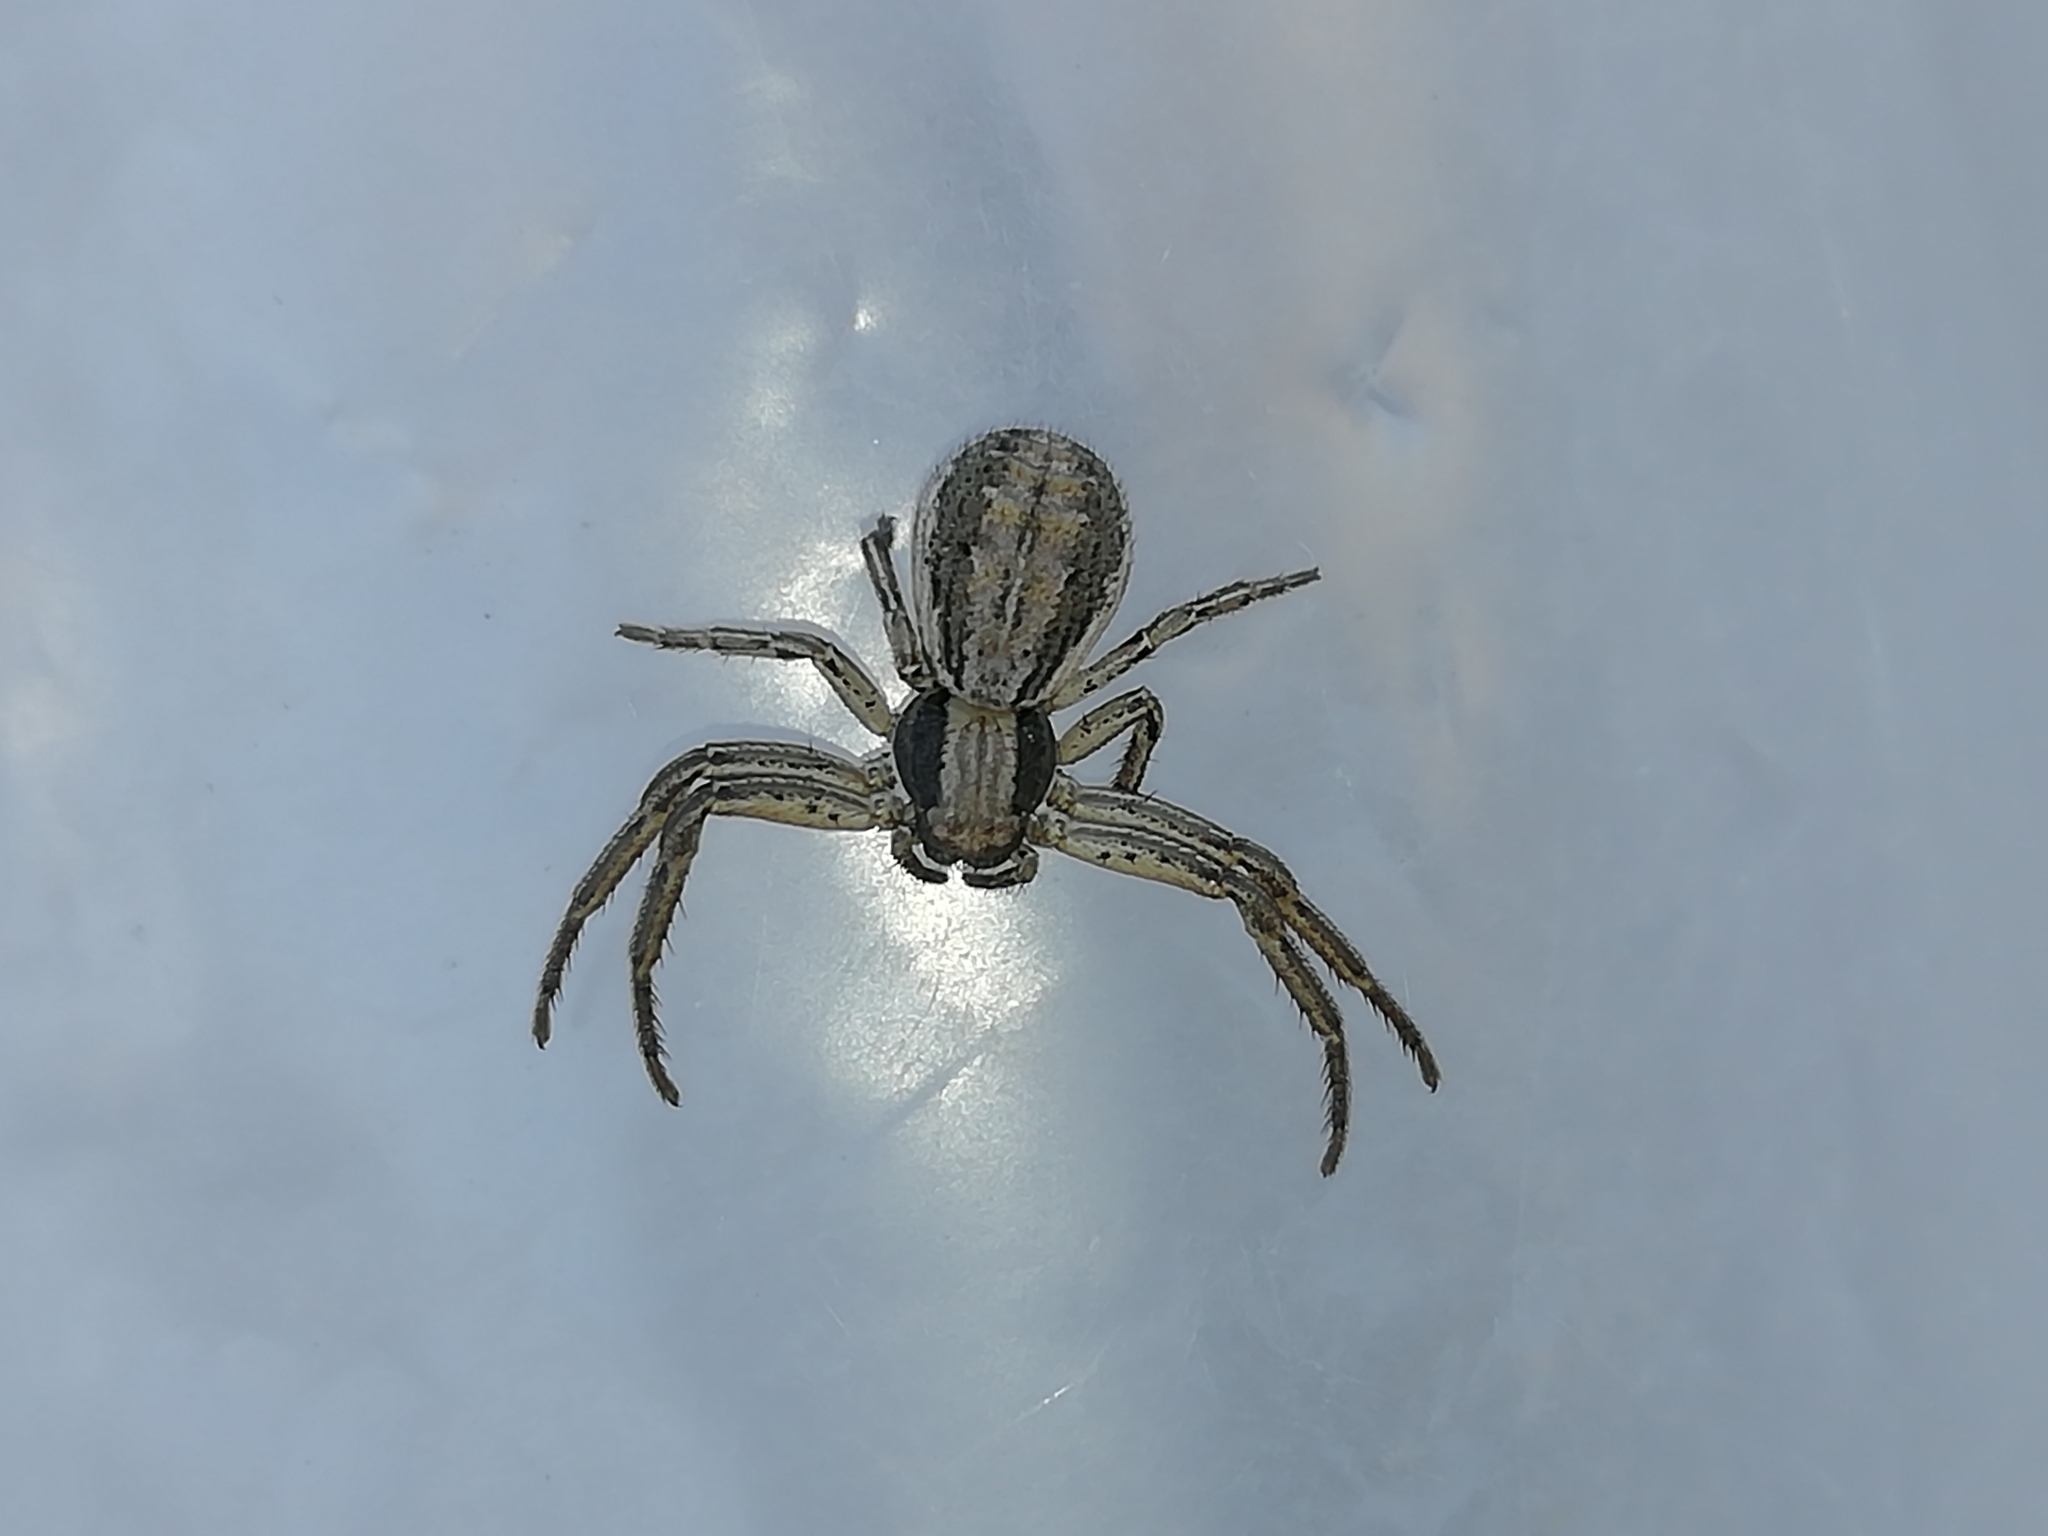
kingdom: Animalia
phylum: Arthropoda
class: Arachnida
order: Araneae
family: Thomisidae
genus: Spiracme
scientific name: Spiracme striatipes
